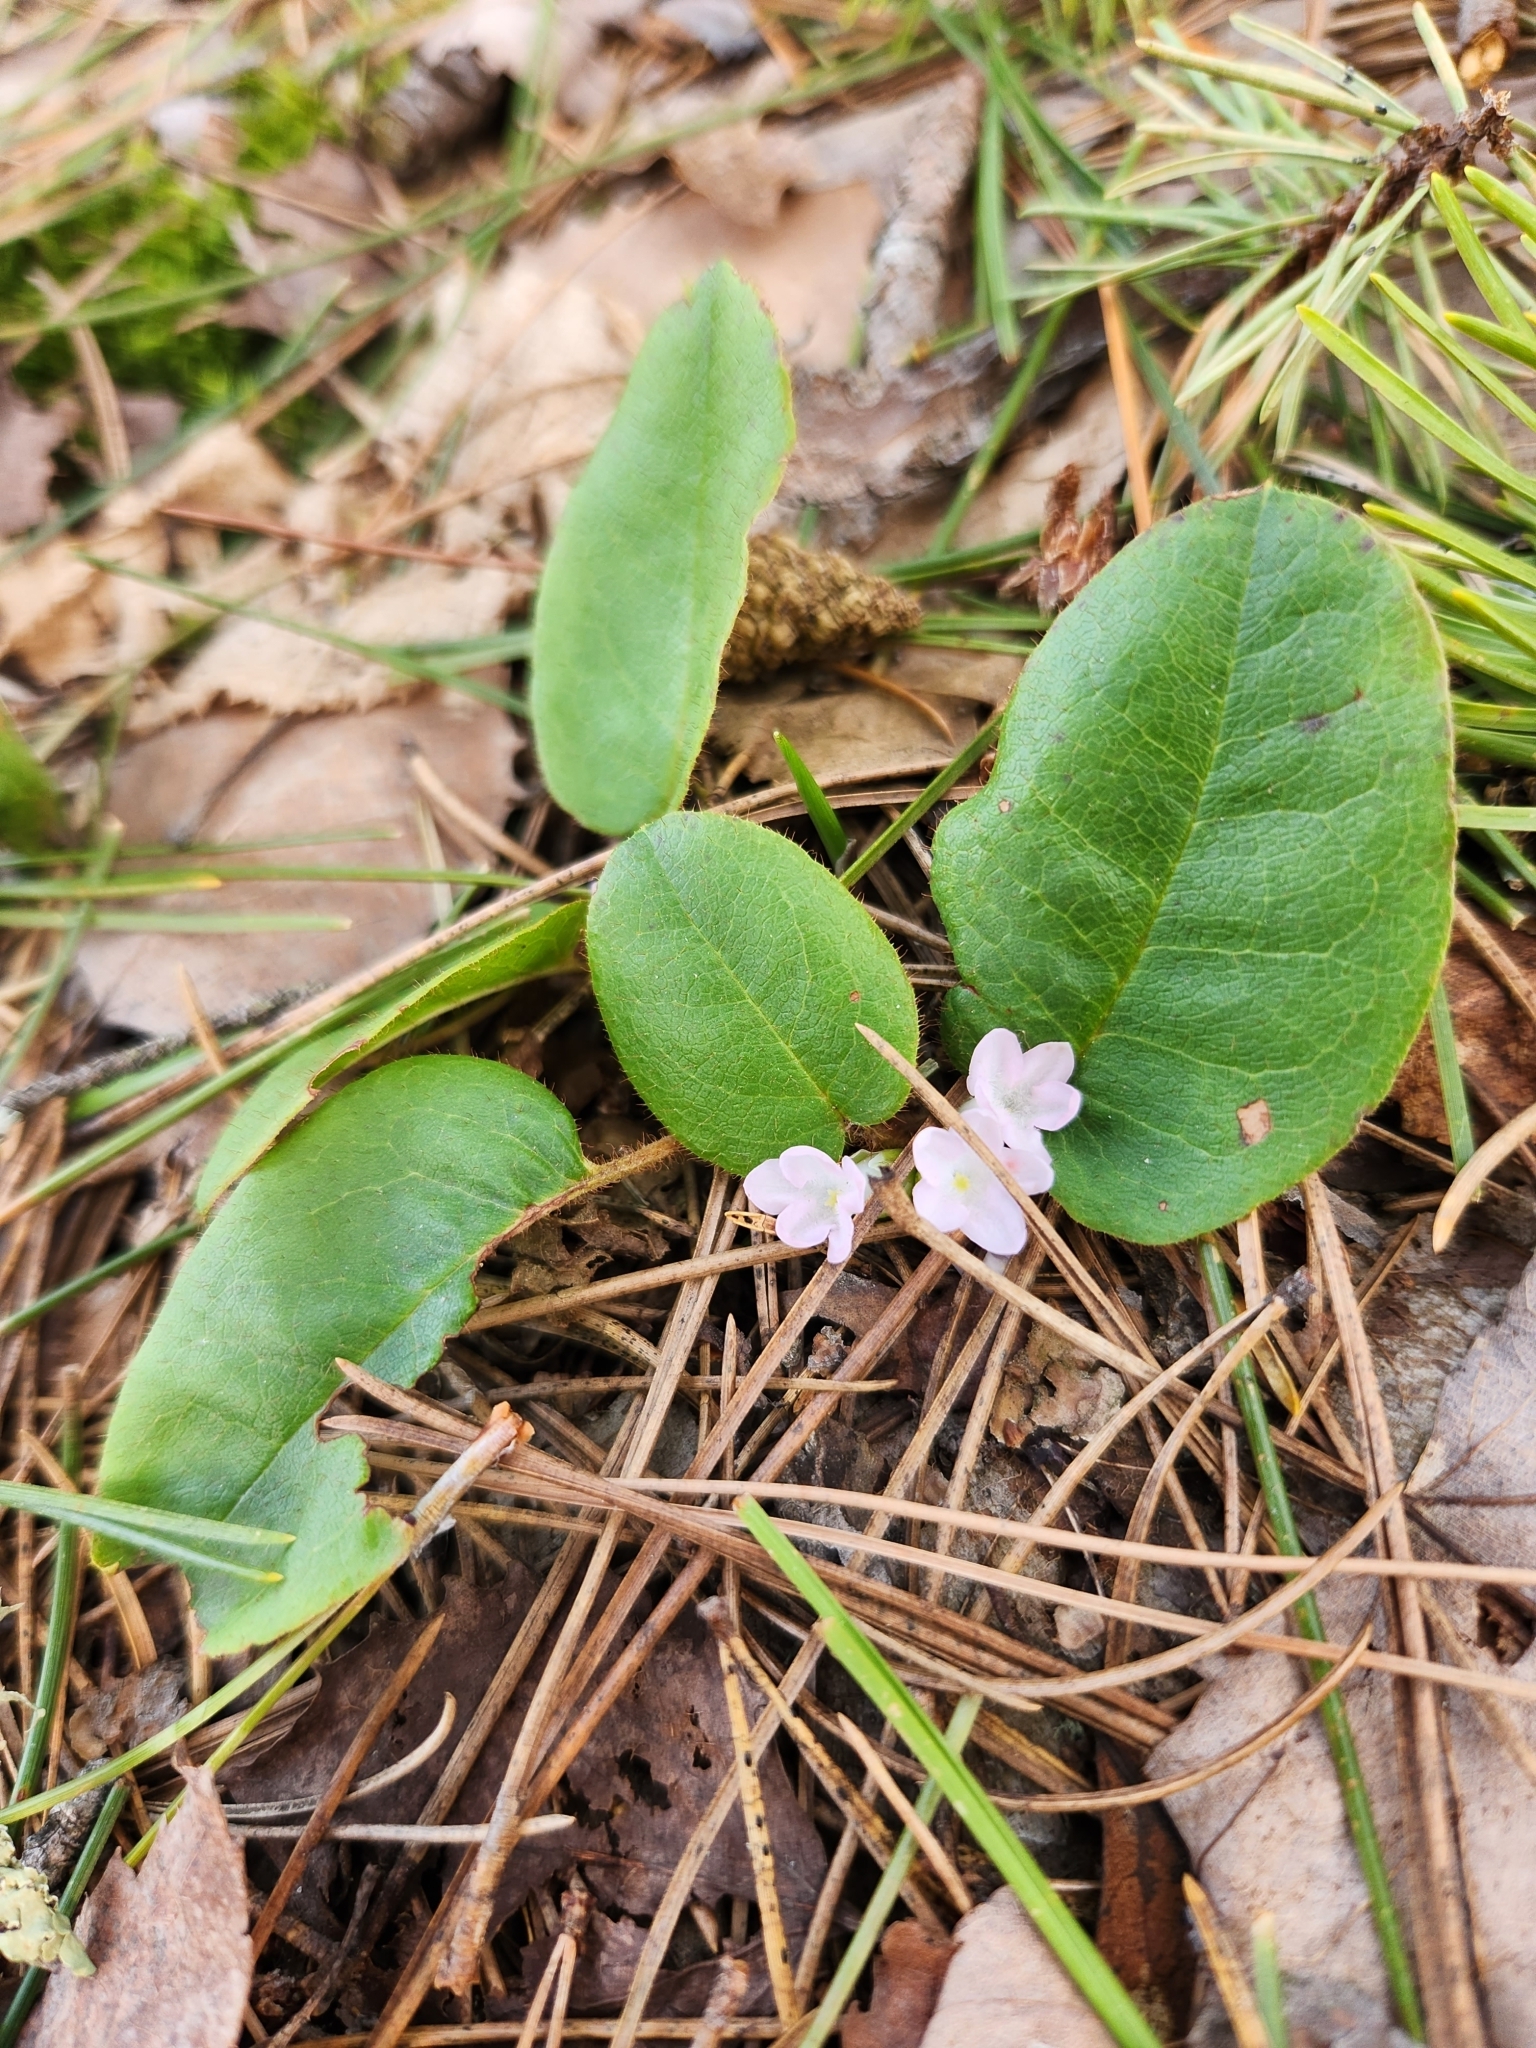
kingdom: Plantae
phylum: Tracheophyta
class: Magnoliopsida
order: Ericales
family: Ericaceae
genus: Epigaea
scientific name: Epigaea repens
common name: Gravelroot
